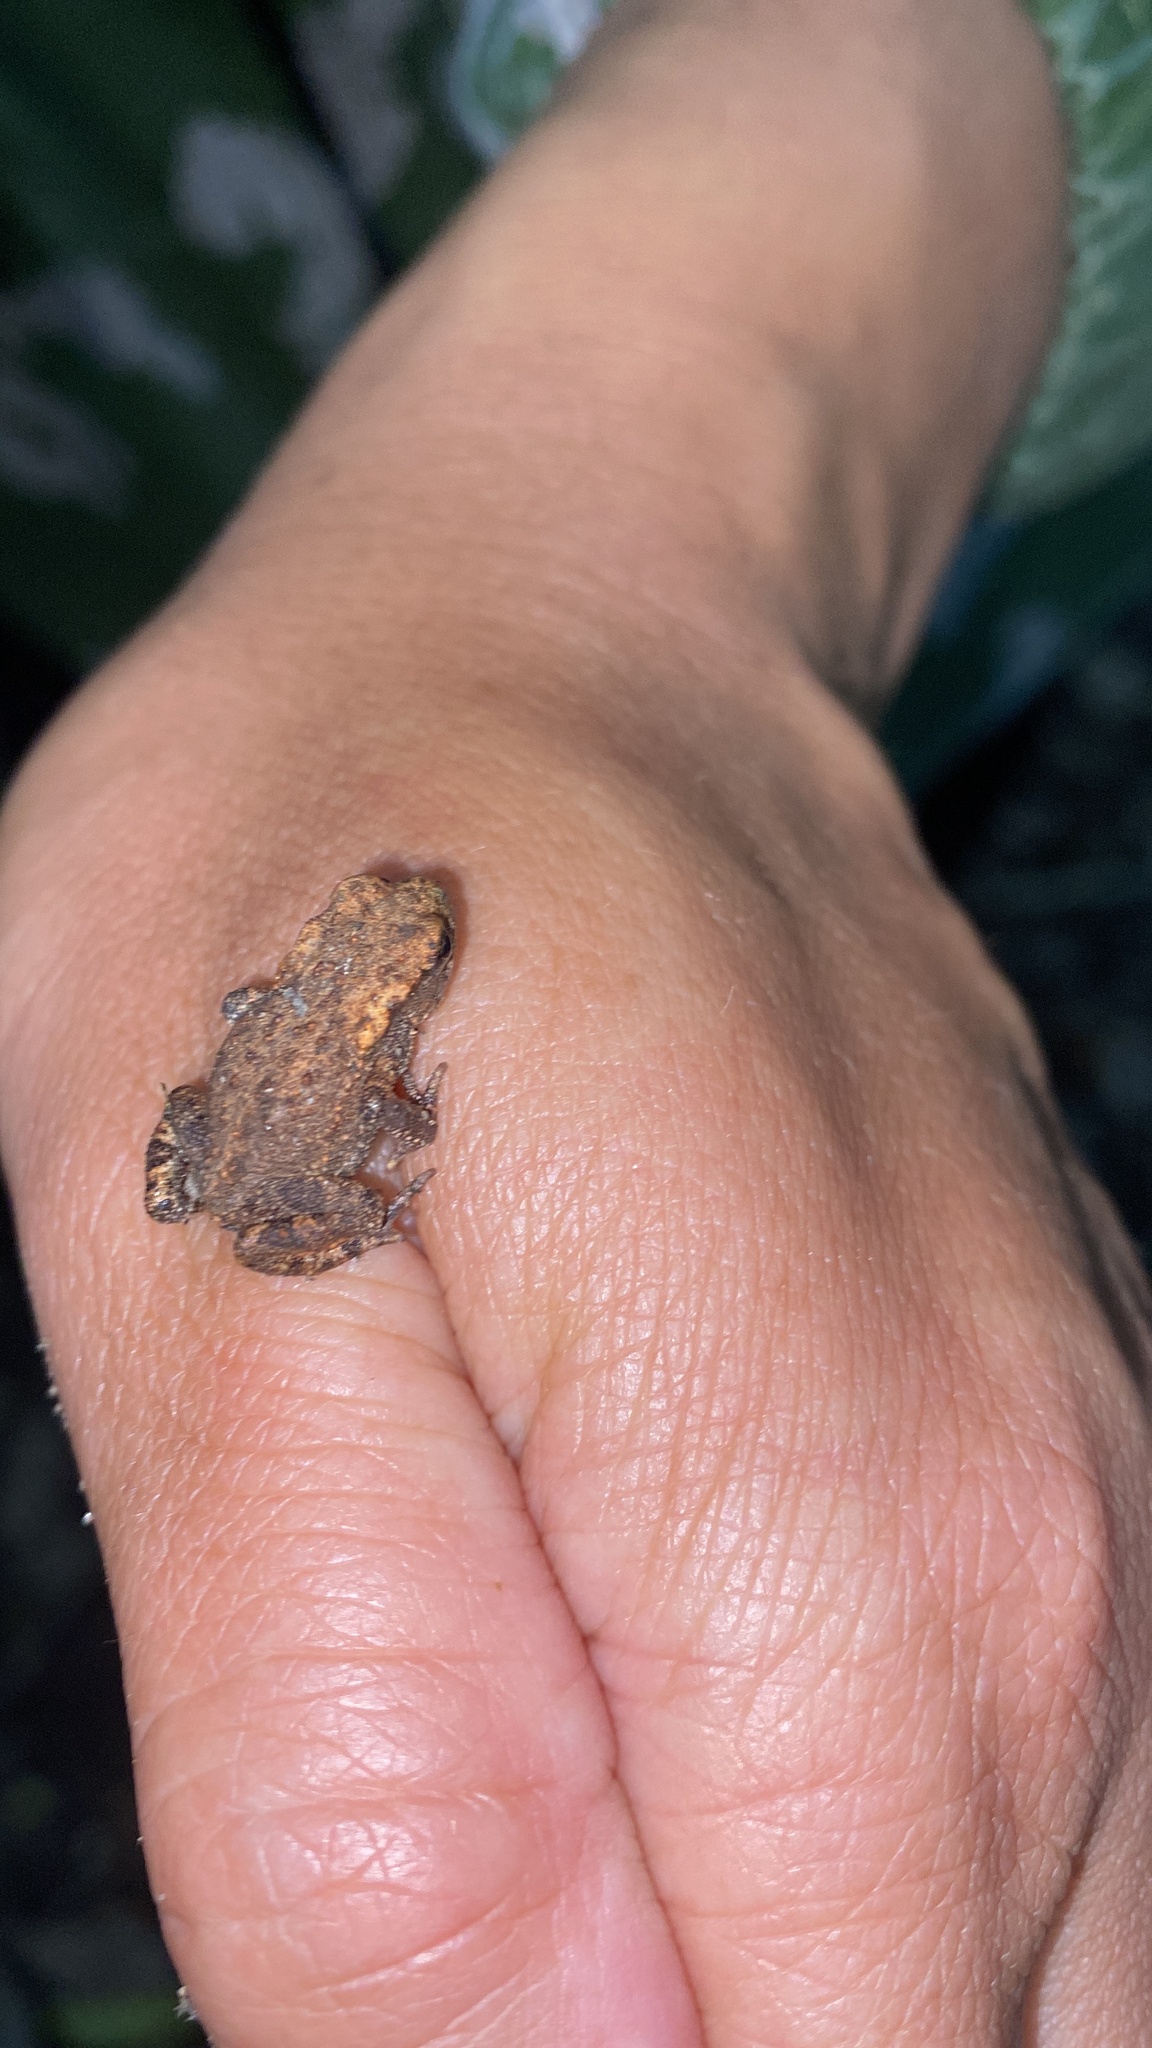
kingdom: Animalia
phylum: Chordata
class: Amphibia
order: Anura
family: Bufonidae
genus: Bufo
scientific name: Bufo verrucosissimus
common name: Caucasian toad
